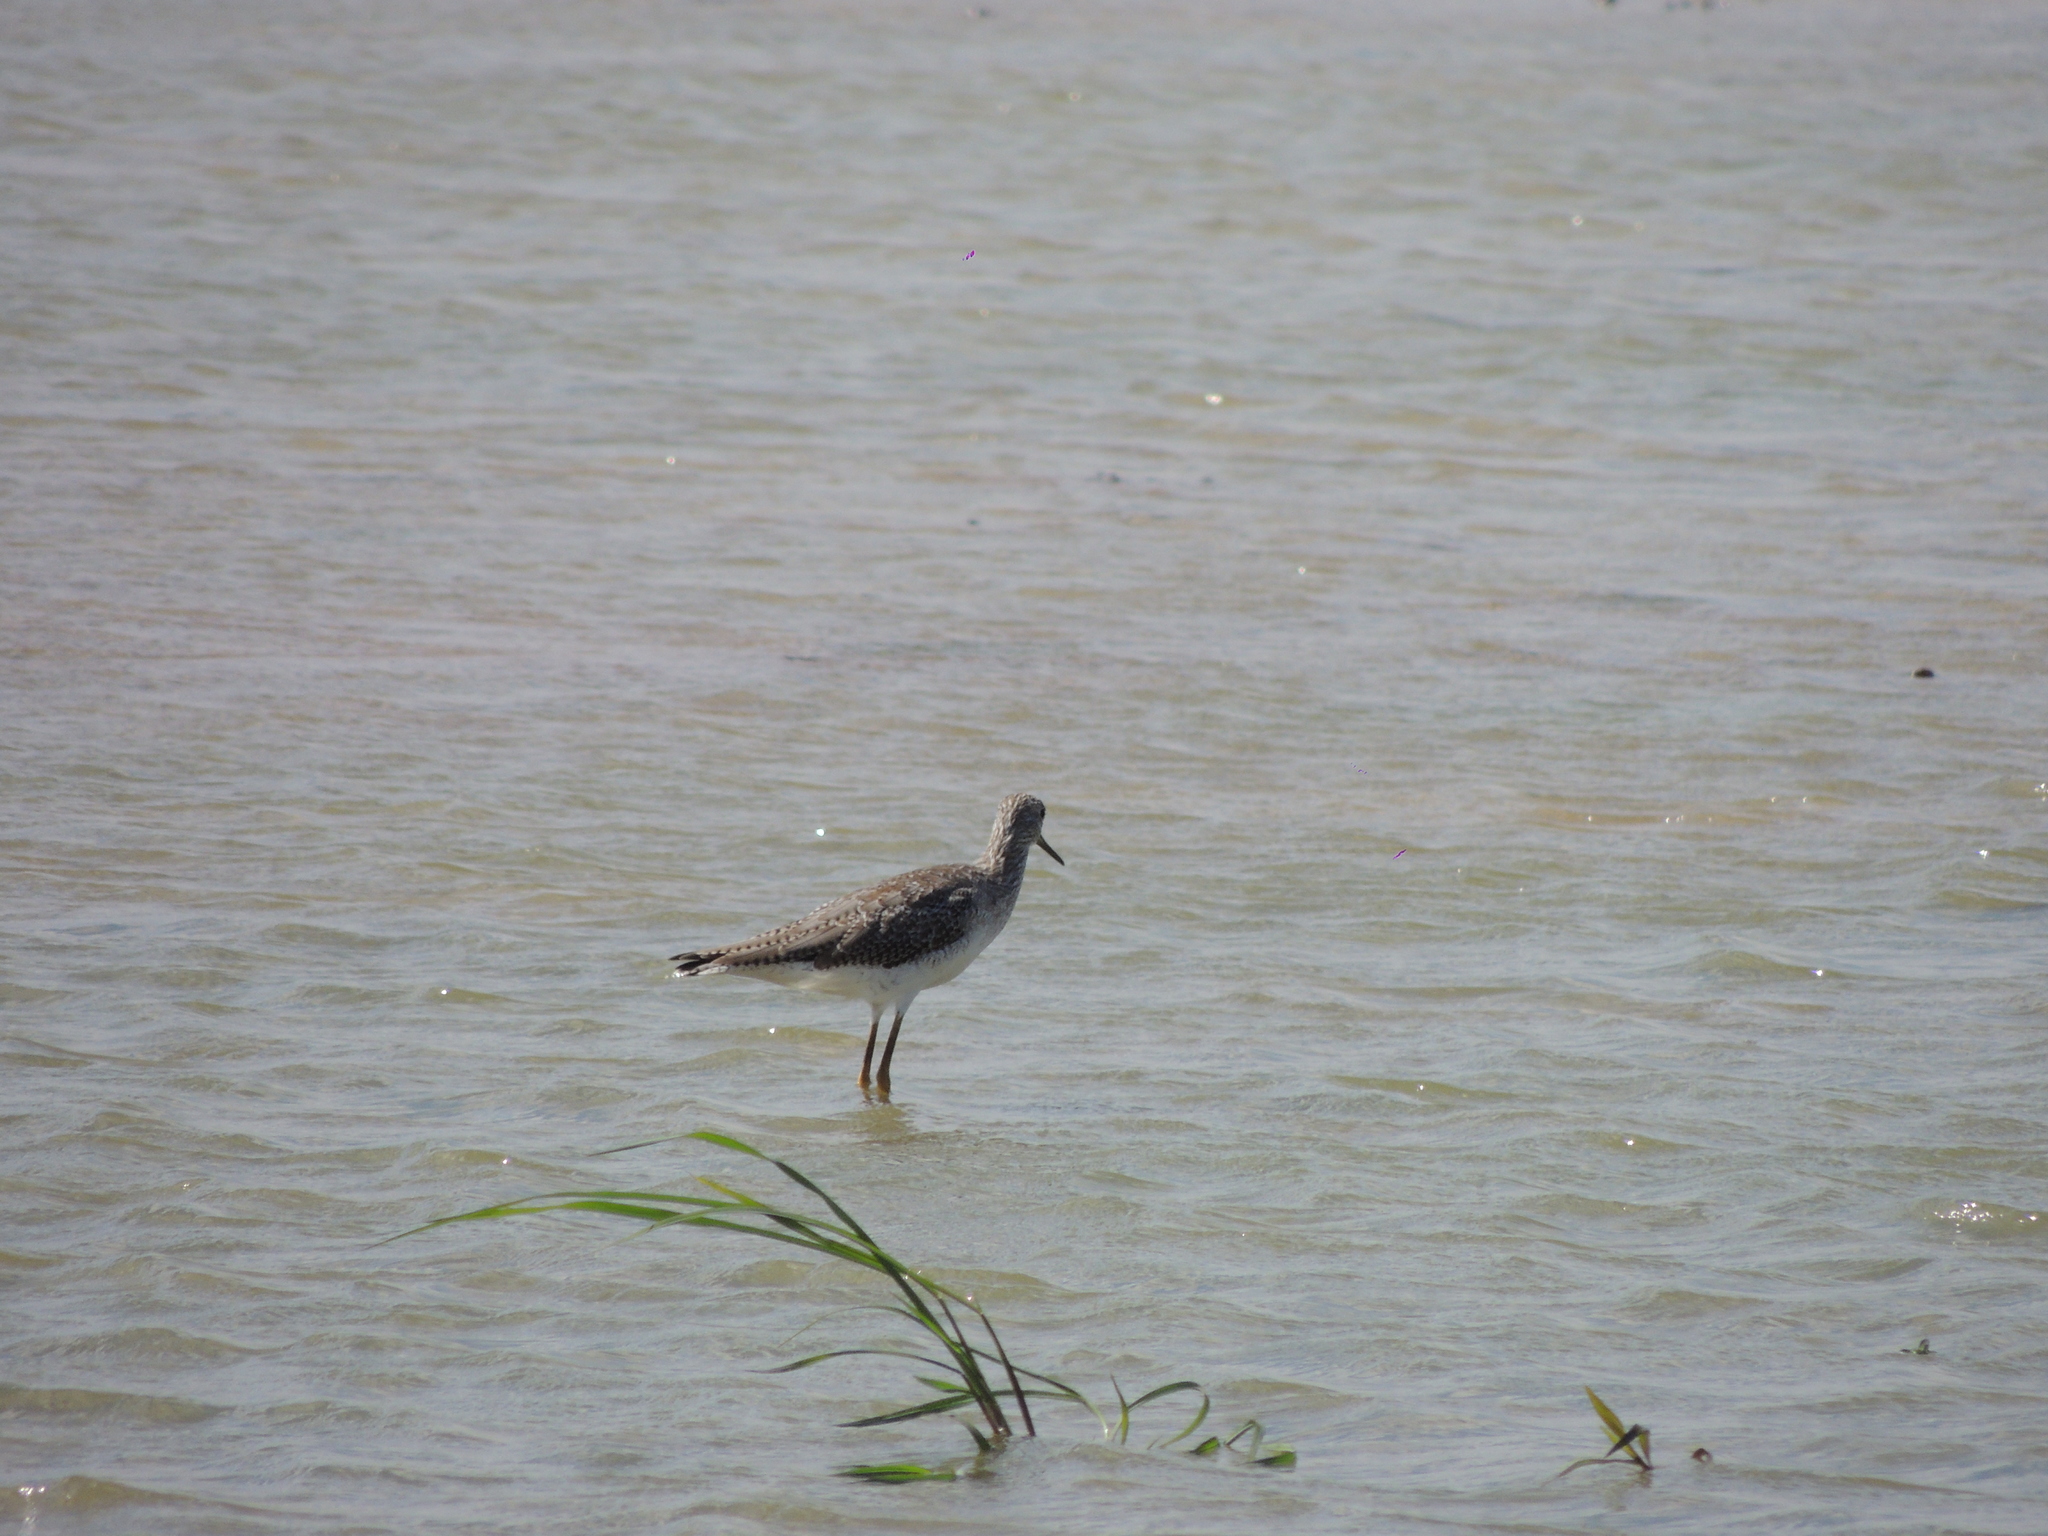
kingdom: Animalia
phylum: Chordata
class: Aves
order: Charadriiformes
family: Scolopacidae
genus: Tringa
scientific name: Tringa melanoleuca
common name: Greater yellowlegs
